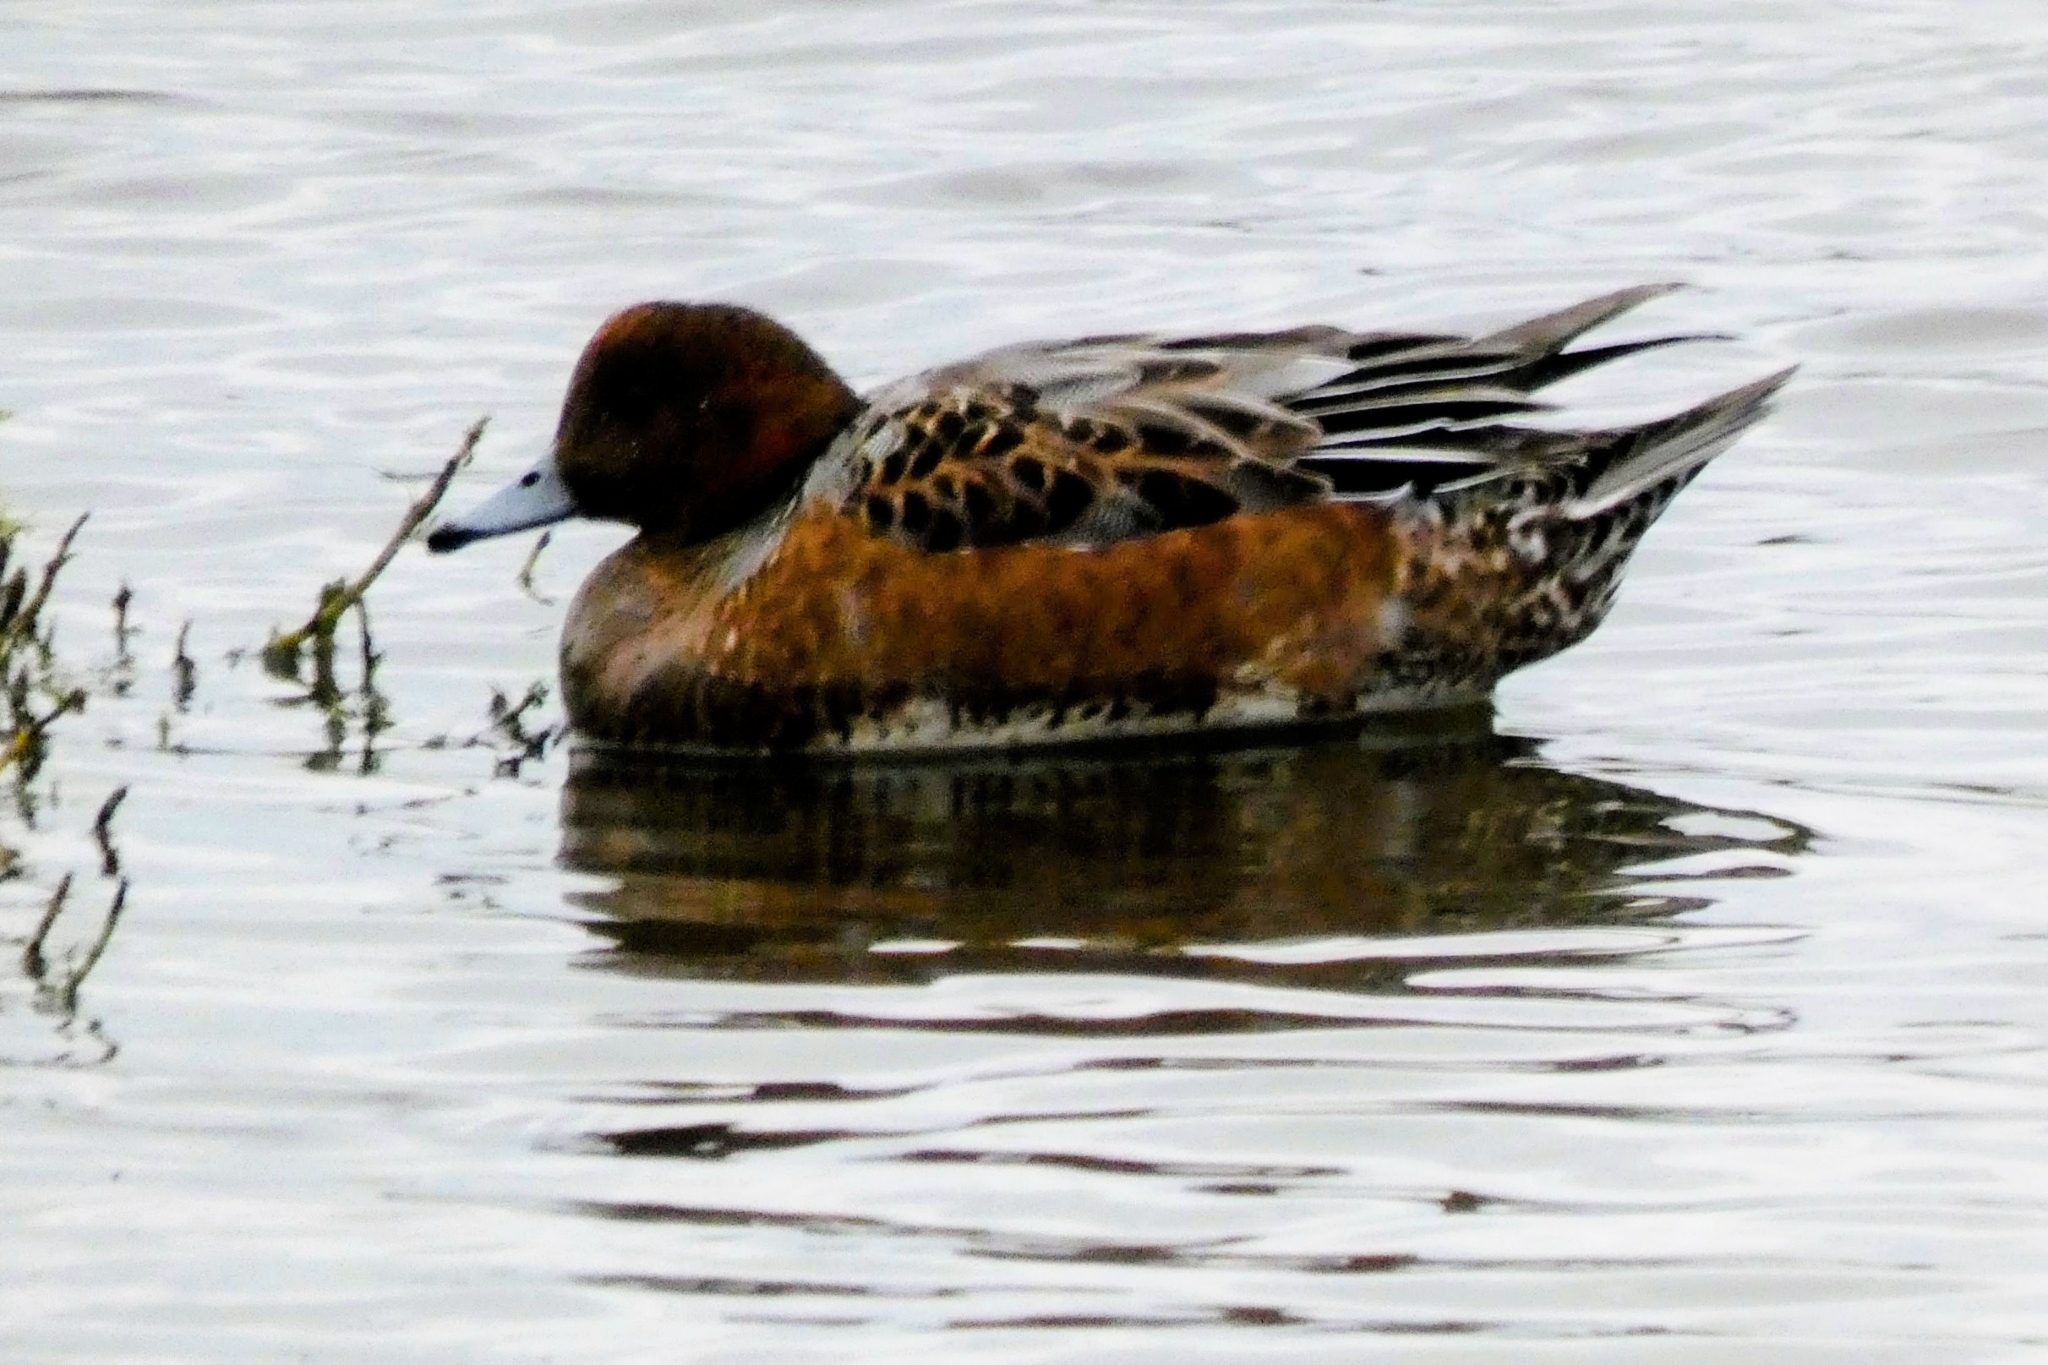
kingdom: Animalia
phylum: Chordata
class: Aves
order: Anseriformes
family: Anatidae
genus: Mareca
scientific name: Mareca penelope
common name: Eurasian wigeon
